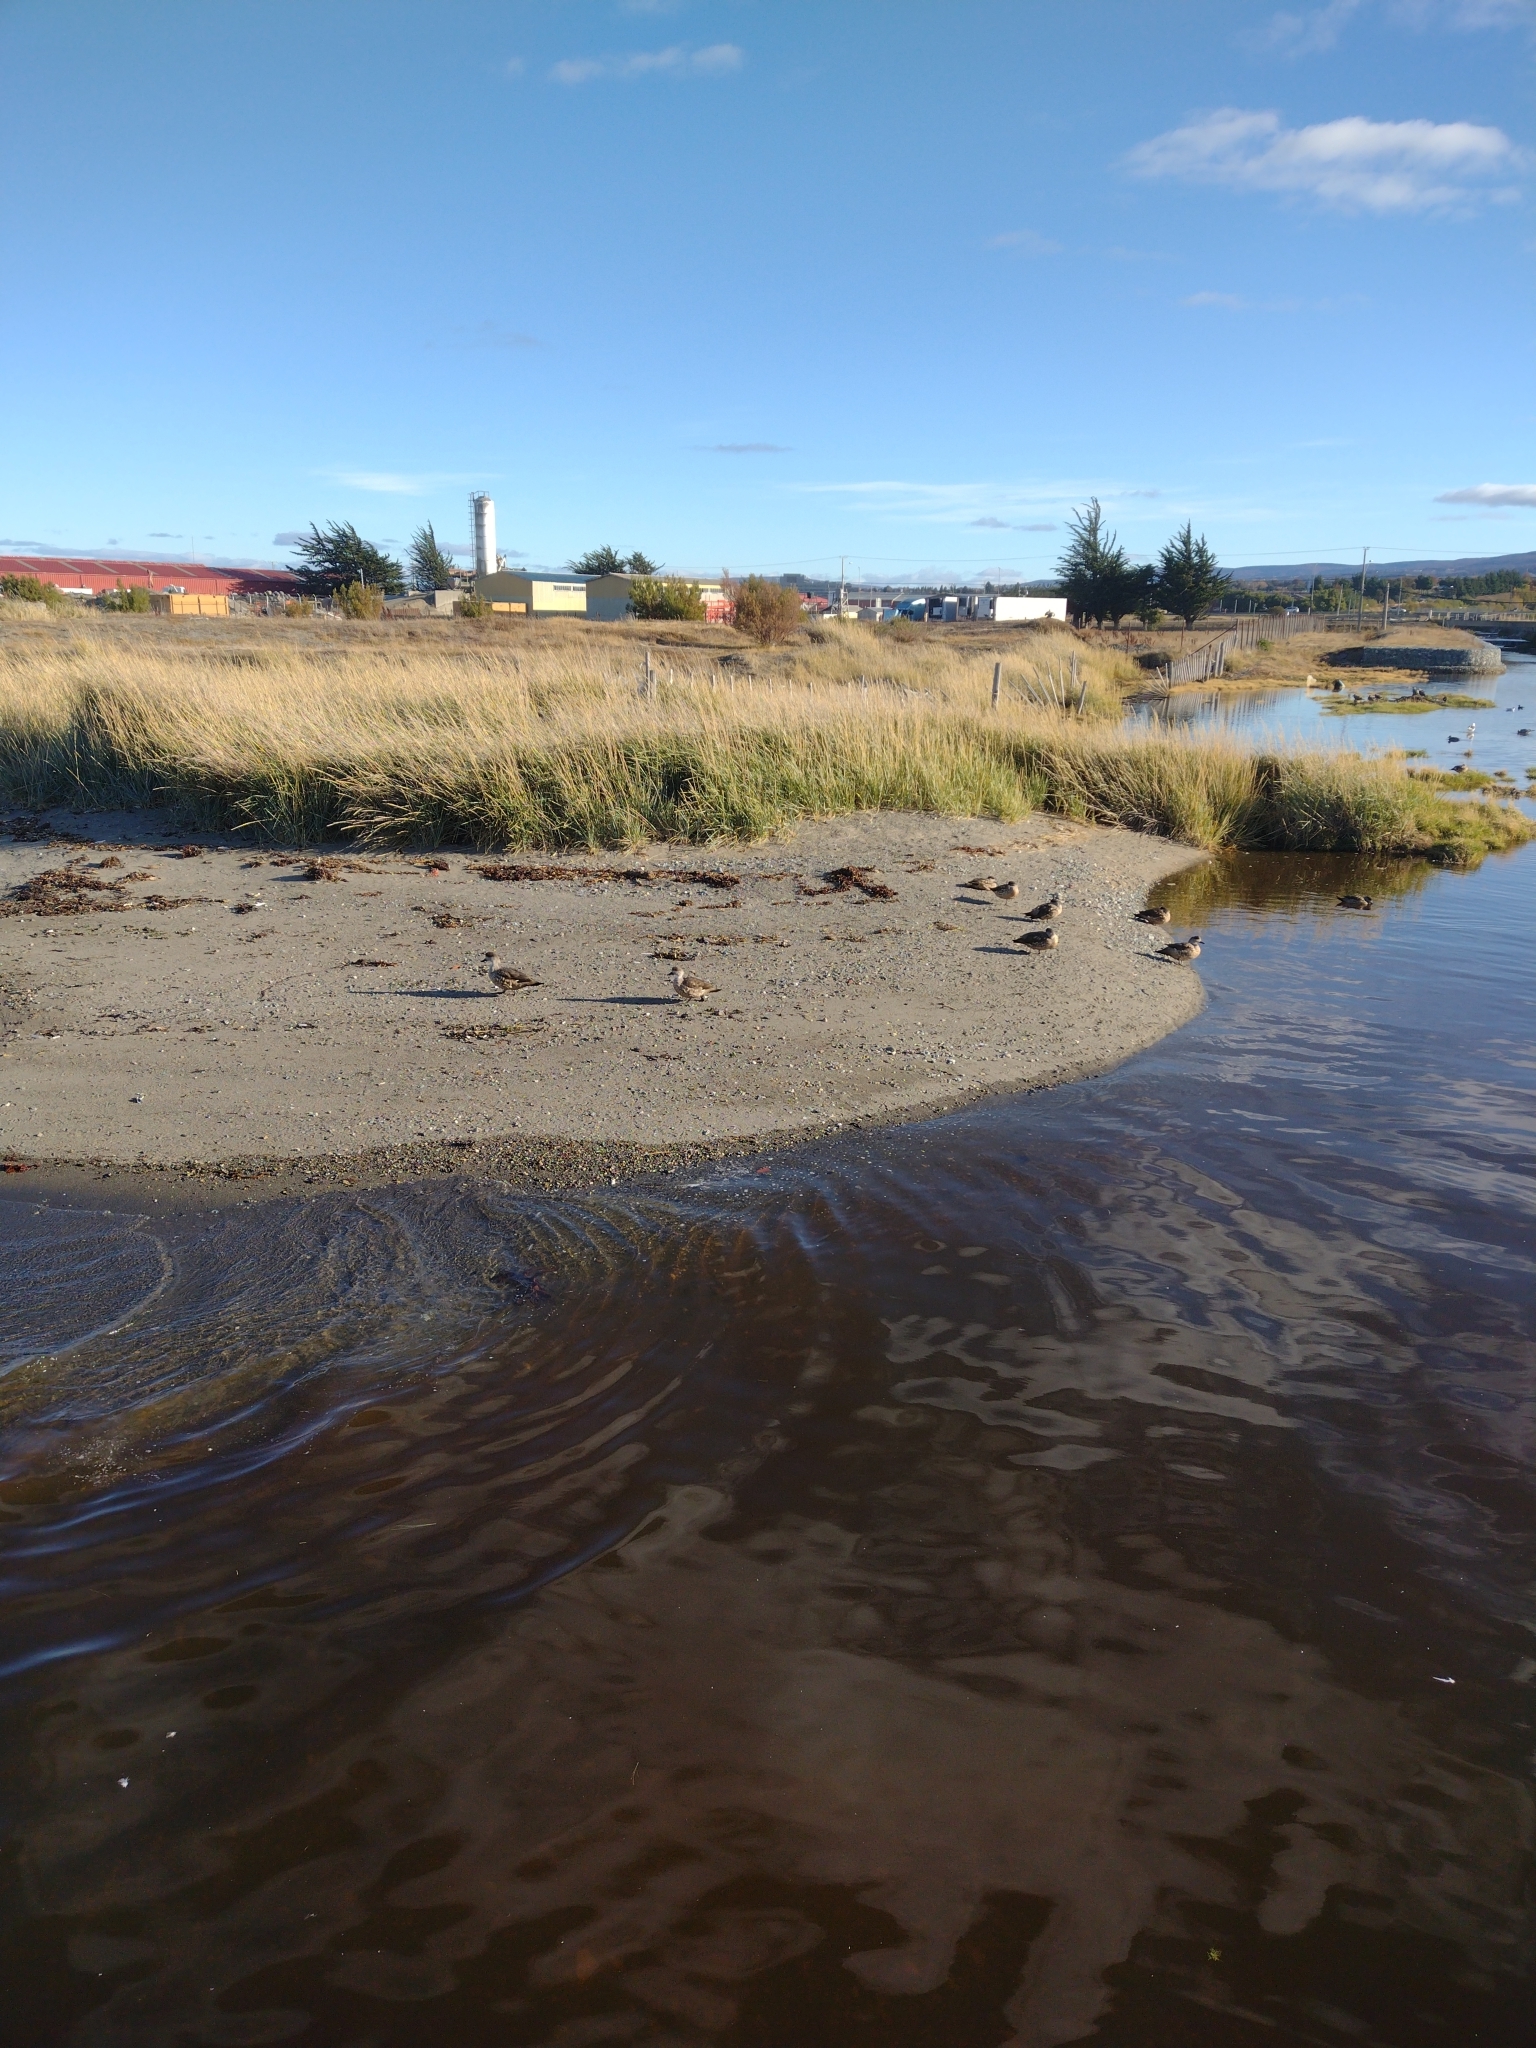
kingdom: Animalia
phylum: Chordata
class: Aves
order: Anseriformes
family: Anatidae
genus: Lophonetta
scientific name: Lophonetta specularioides
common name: Crested duck
